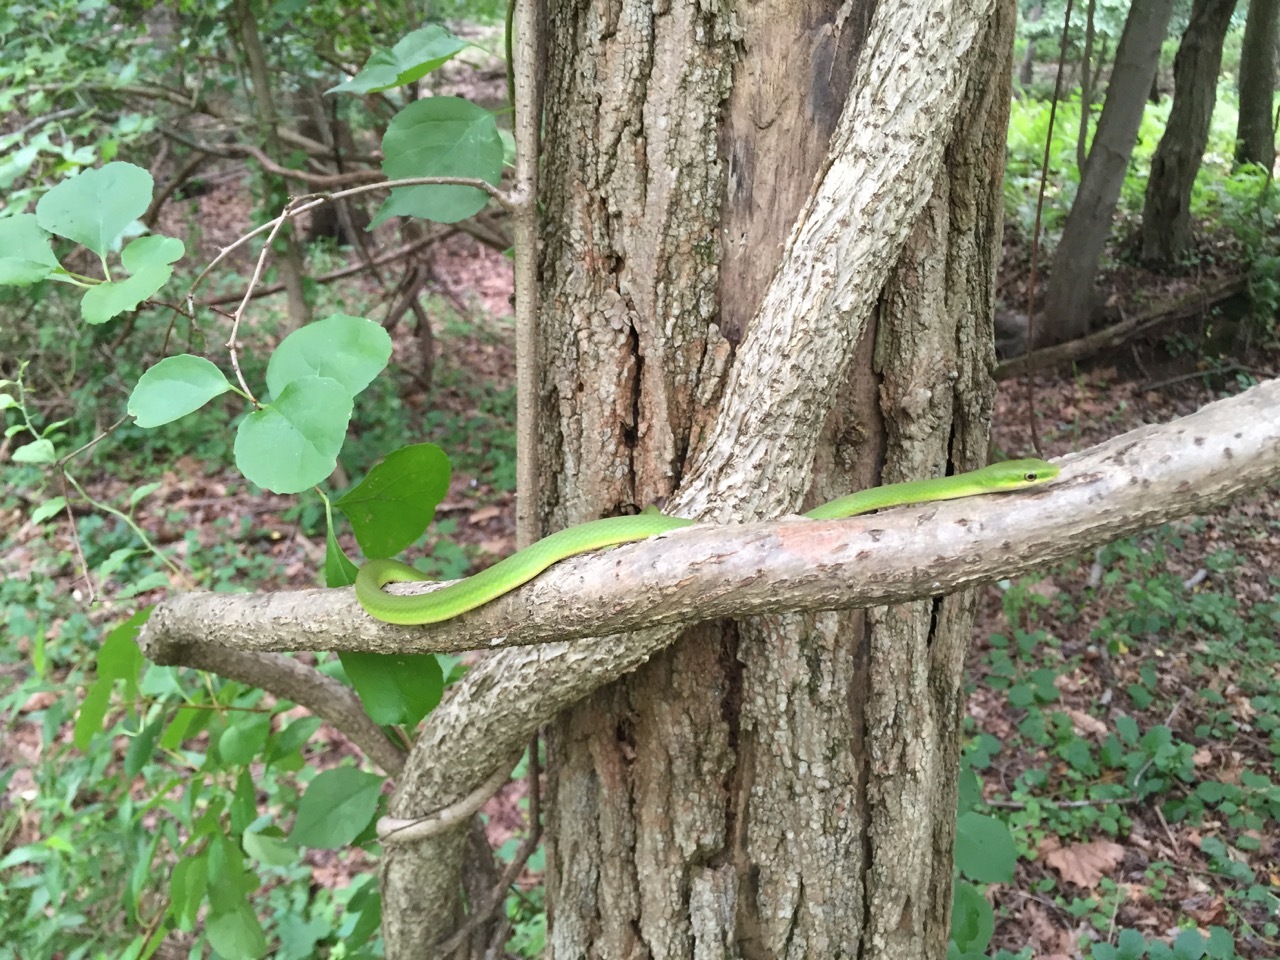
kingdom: Animalia
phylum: Chordata
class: Squamata
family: Colubridae
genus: Opheodrys
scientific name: Opheodrys aestivus
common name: Rough greensnake
